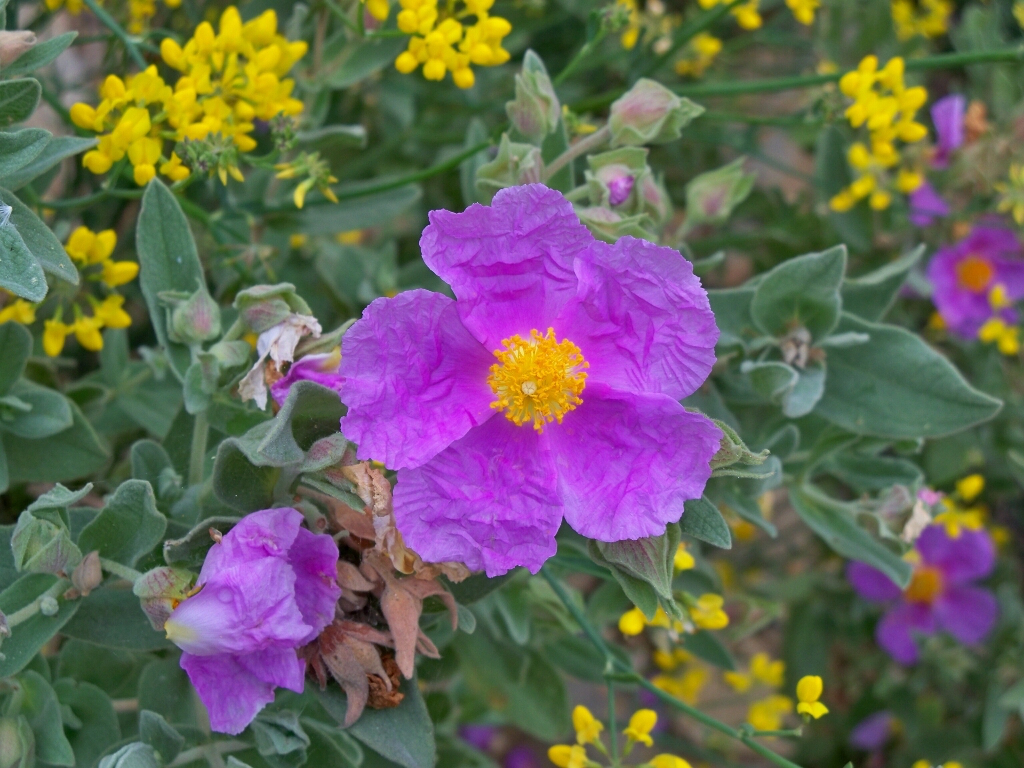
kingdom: Plantae
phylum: Tracheophyta
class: Magnoliopsida
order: Malvales
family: Cistaceae
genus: Cistus
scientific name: Cistus albidus
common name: White-leaf rock-rose
